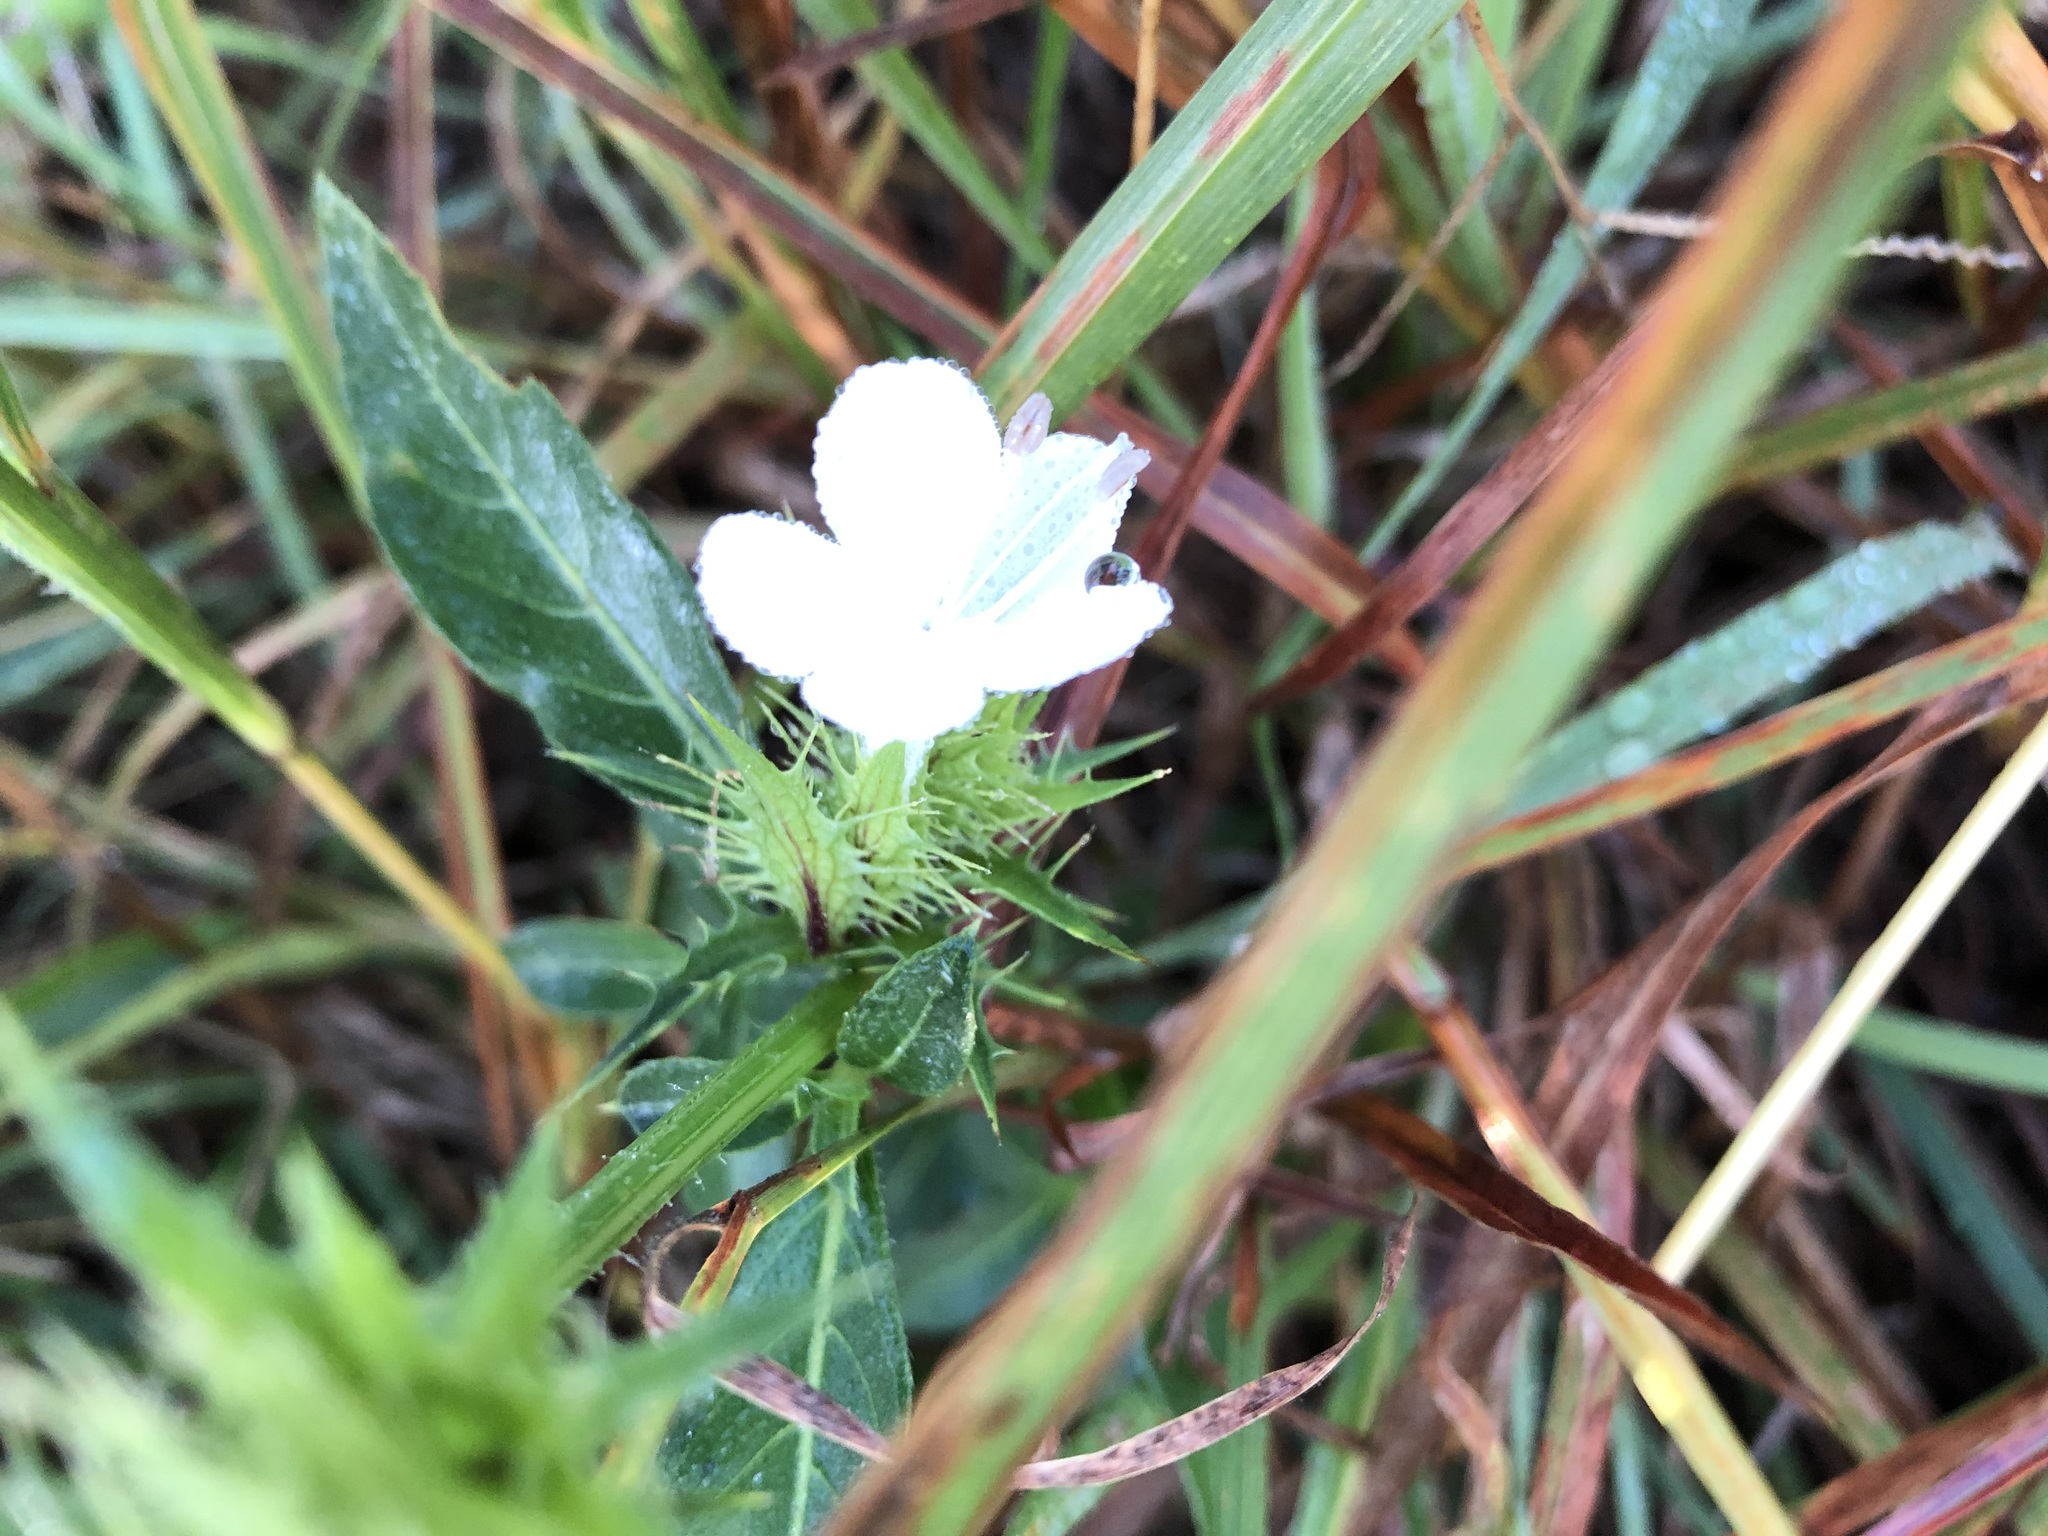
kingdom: Plantae
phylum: Tracheophyta
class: Magnoliopsida
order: Lamiales
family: Acanthaceae
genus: Barleria
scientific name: Barleria elegans
